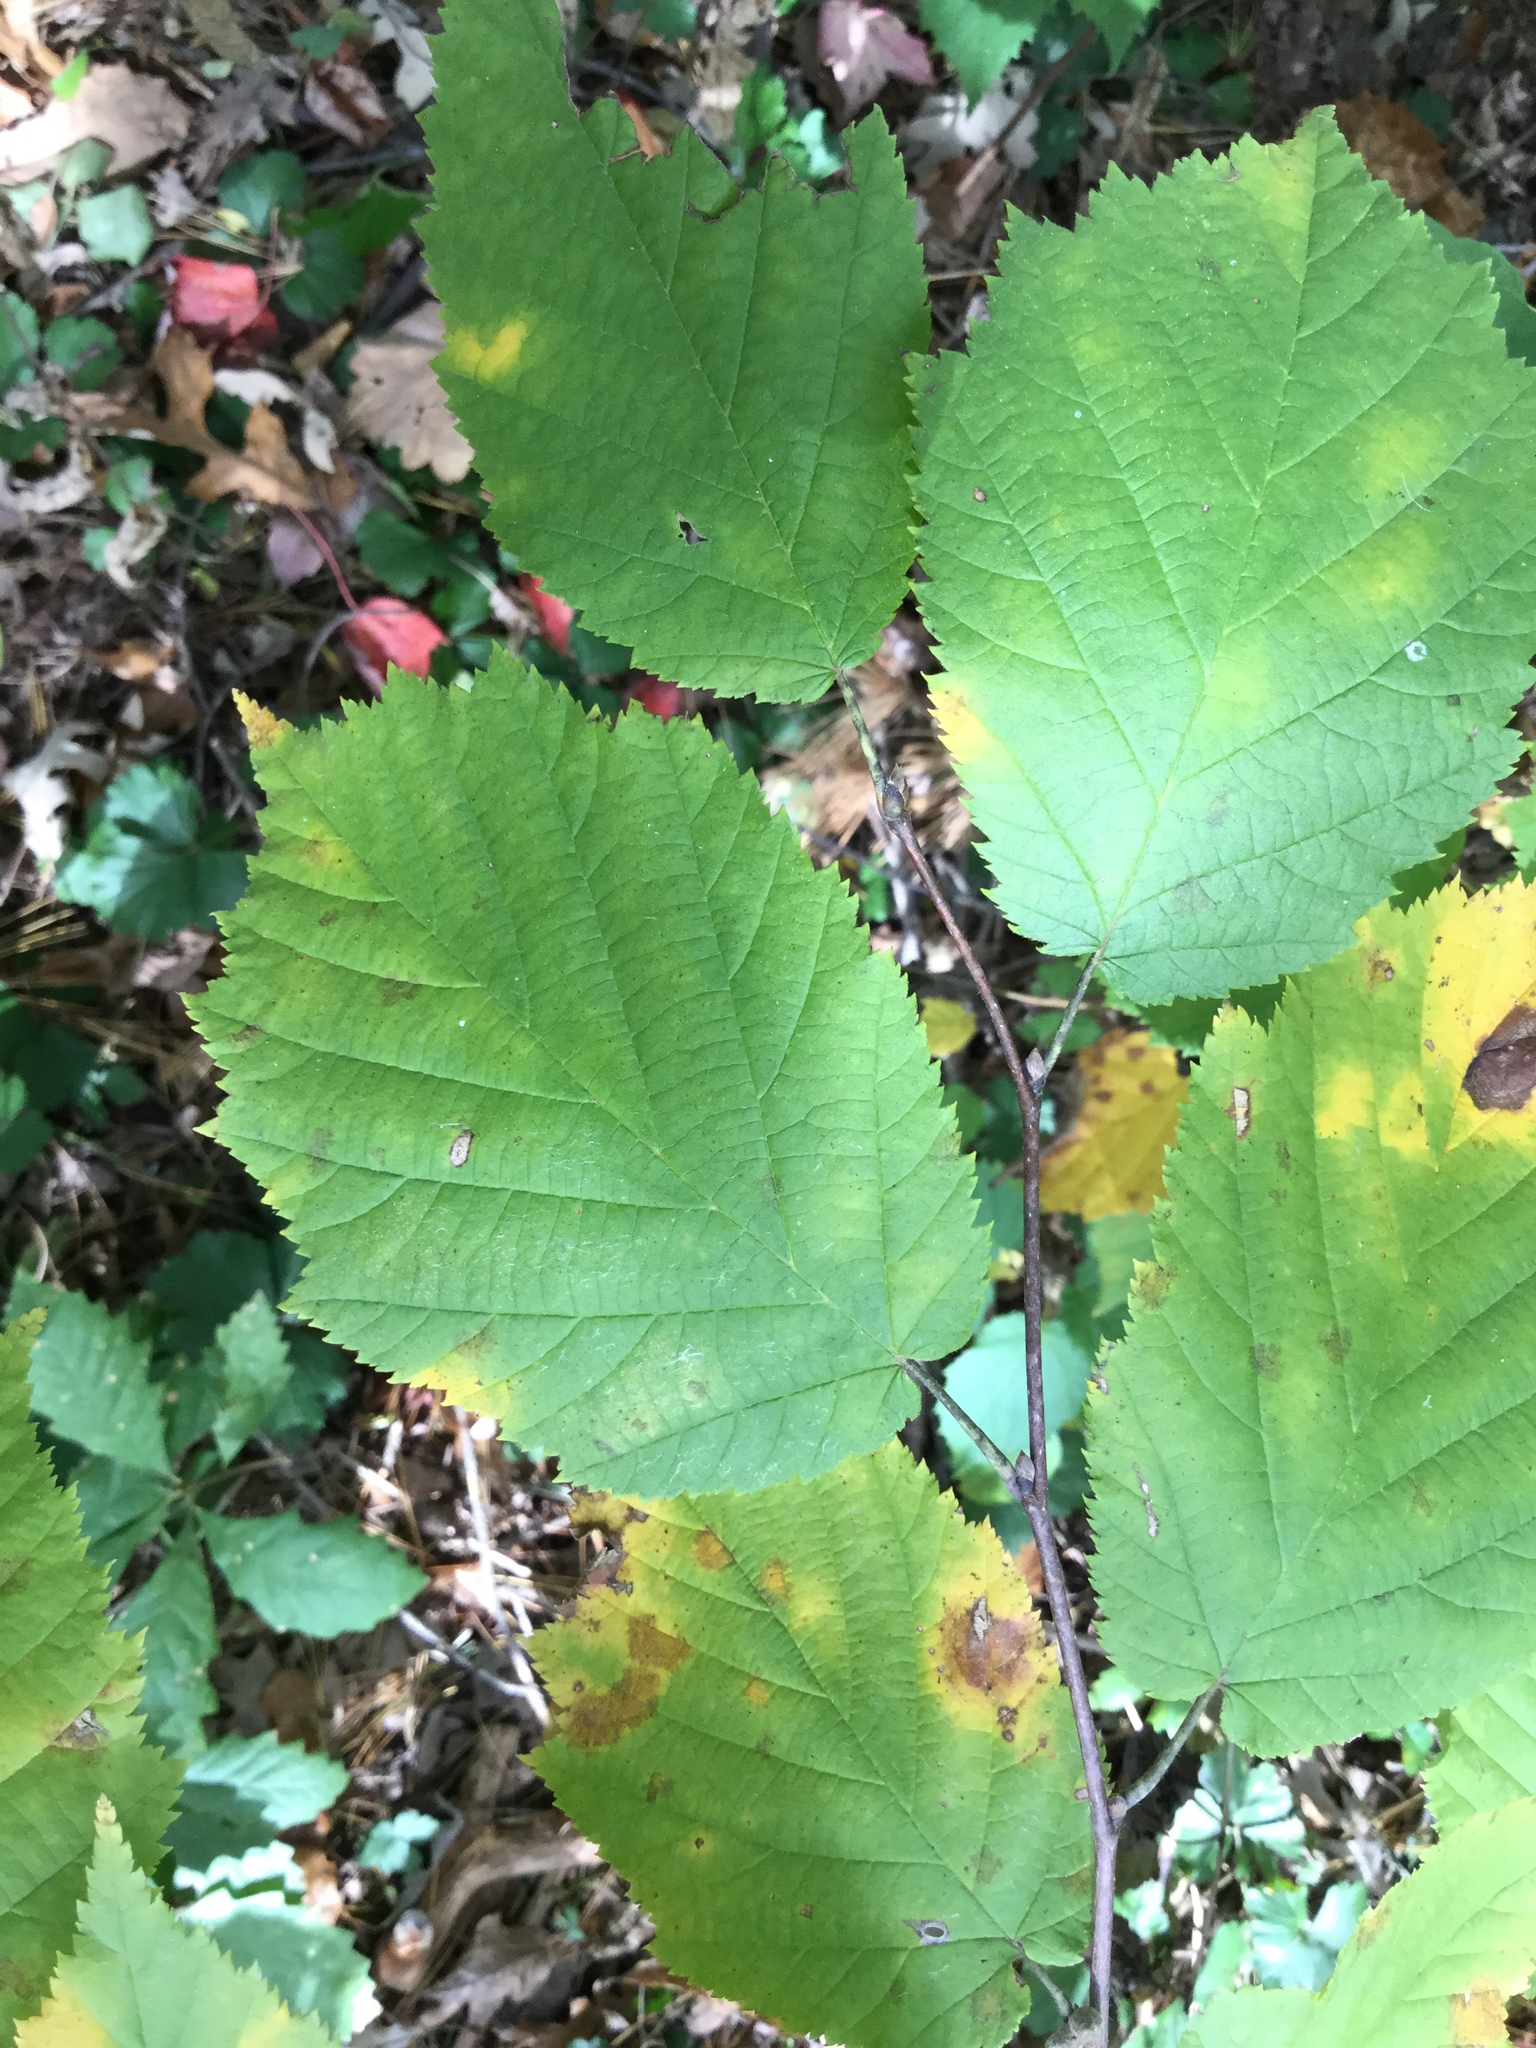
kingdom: Plantae
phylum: Tracheophyta
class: Magnoliopsida
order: Fagales
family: Betulaceae
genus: Corylus
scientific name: Corylus cornuta
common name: Beaked hazel
